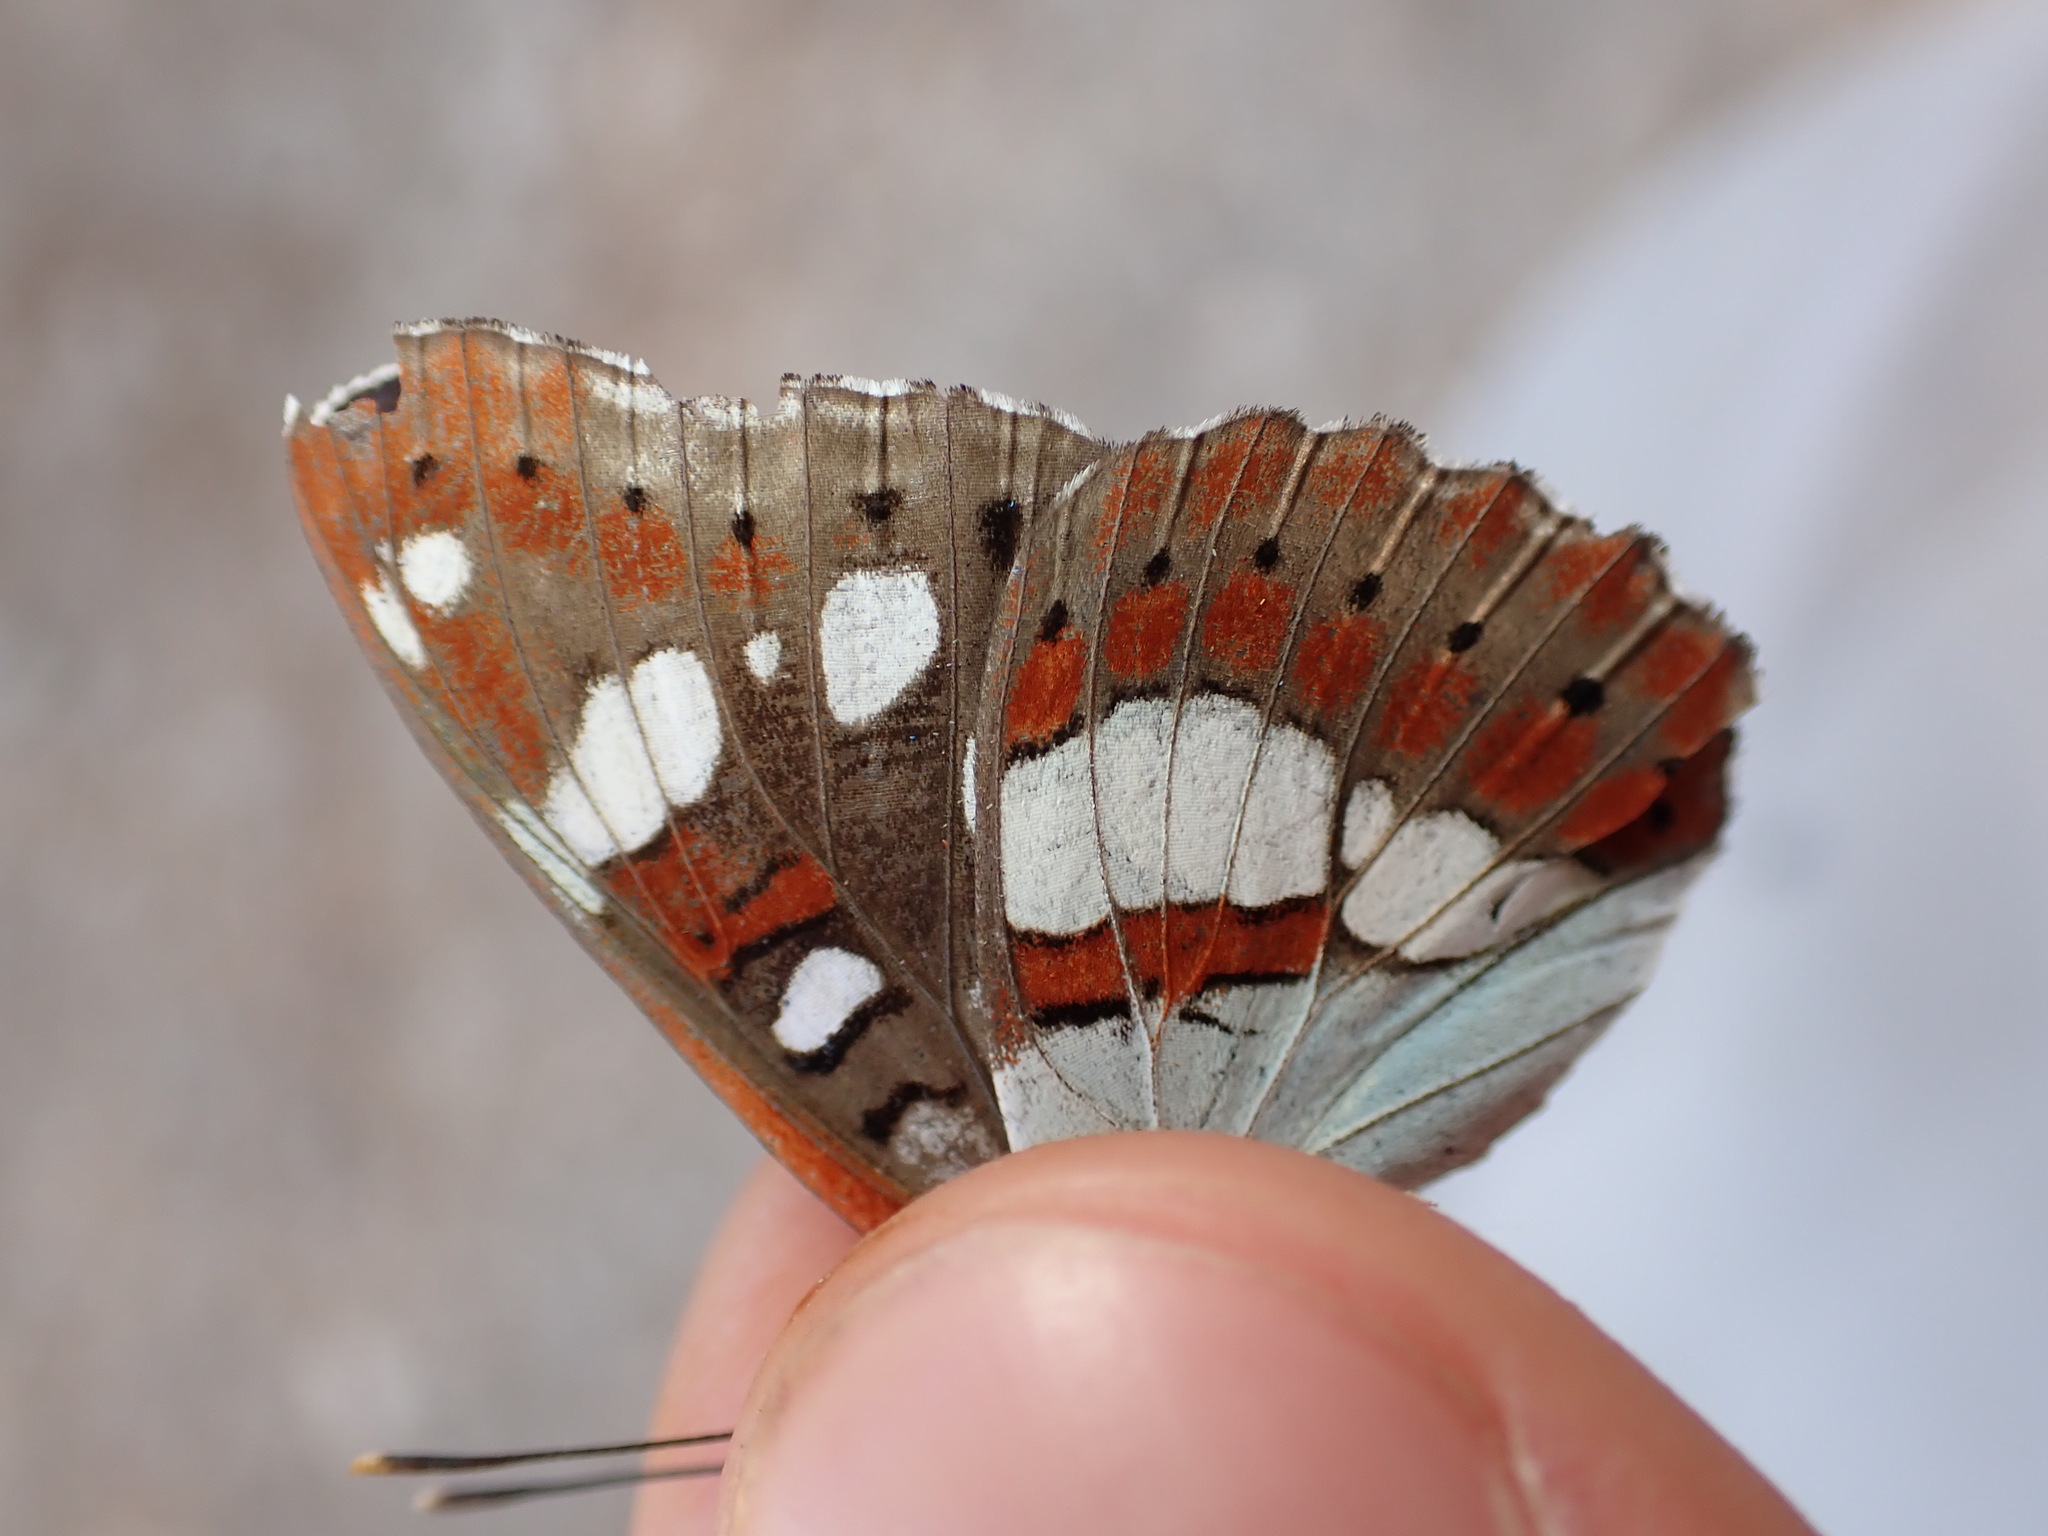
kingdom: Animalia
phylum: Arthropoda
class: Insecta
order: Lepidoptera
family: Nymphalidae
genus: Limenitis
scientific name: Limenitis reducta
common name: Southern white admiral
